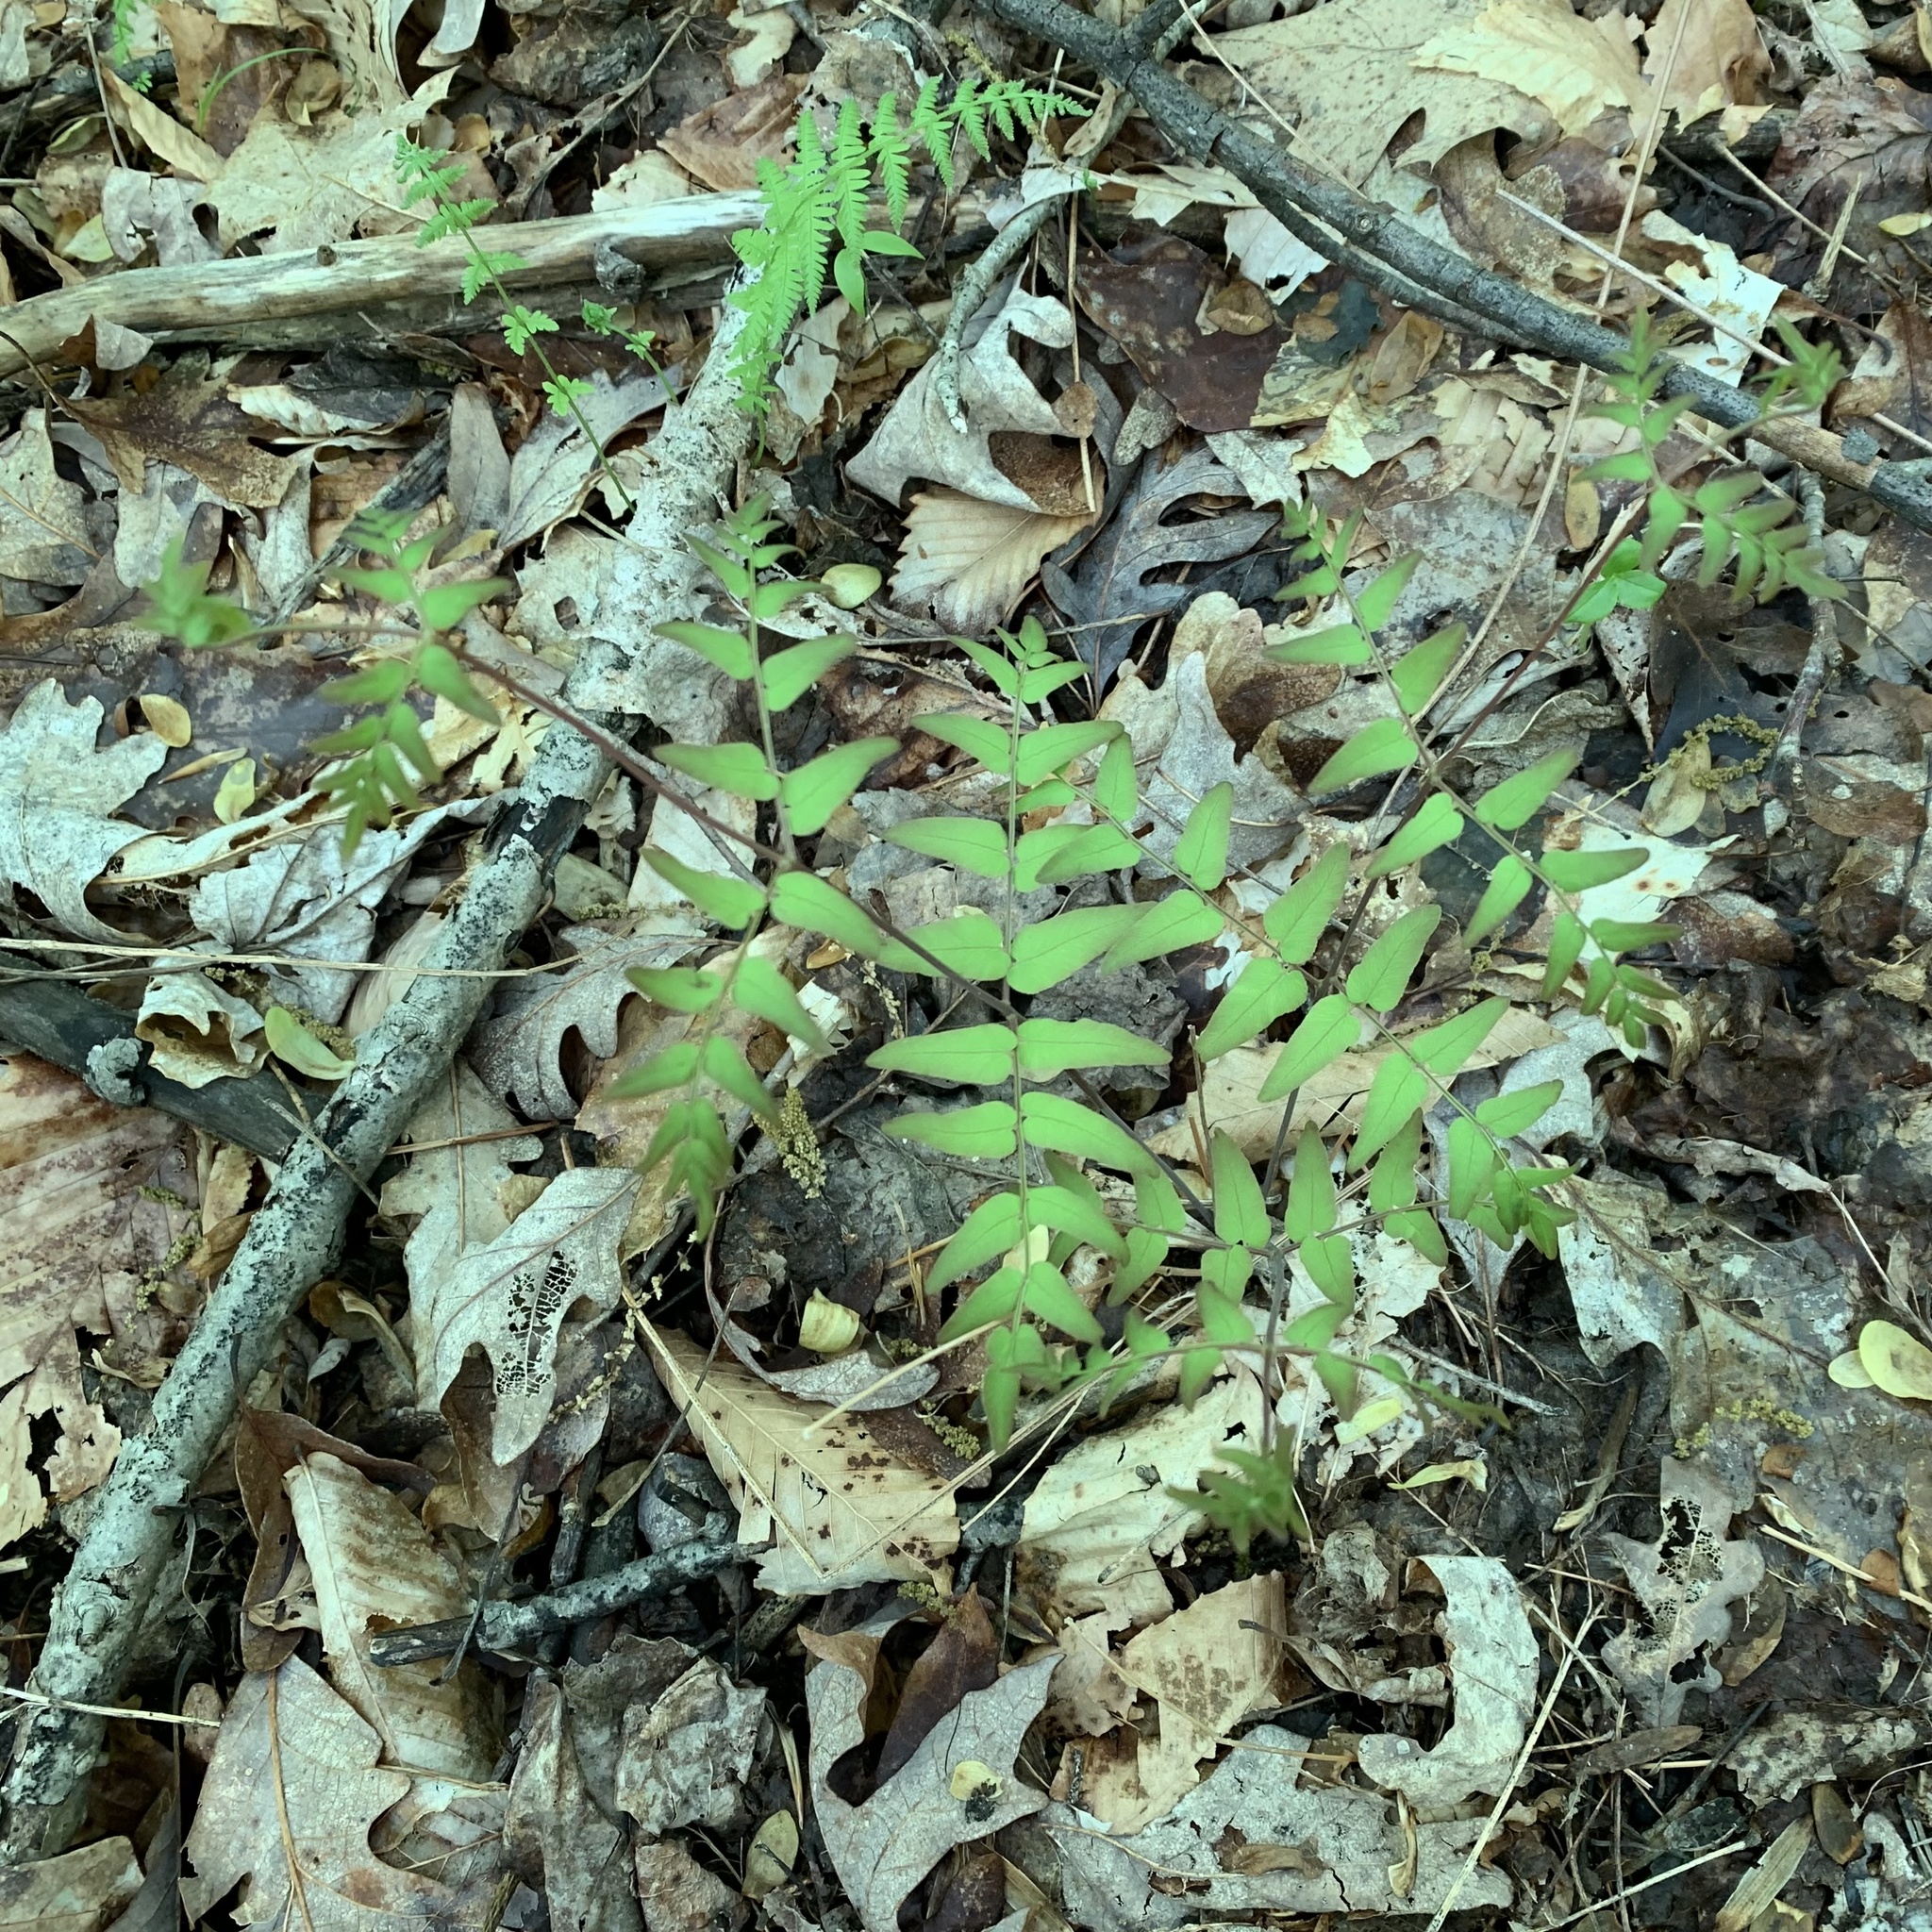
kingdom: Plantae
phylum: Tracheophyta
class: Polypodiopsida
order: Osmundales
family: Osmundaceae
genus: Osmunda
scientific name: Osmunda spectabilis
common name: American royal fern
